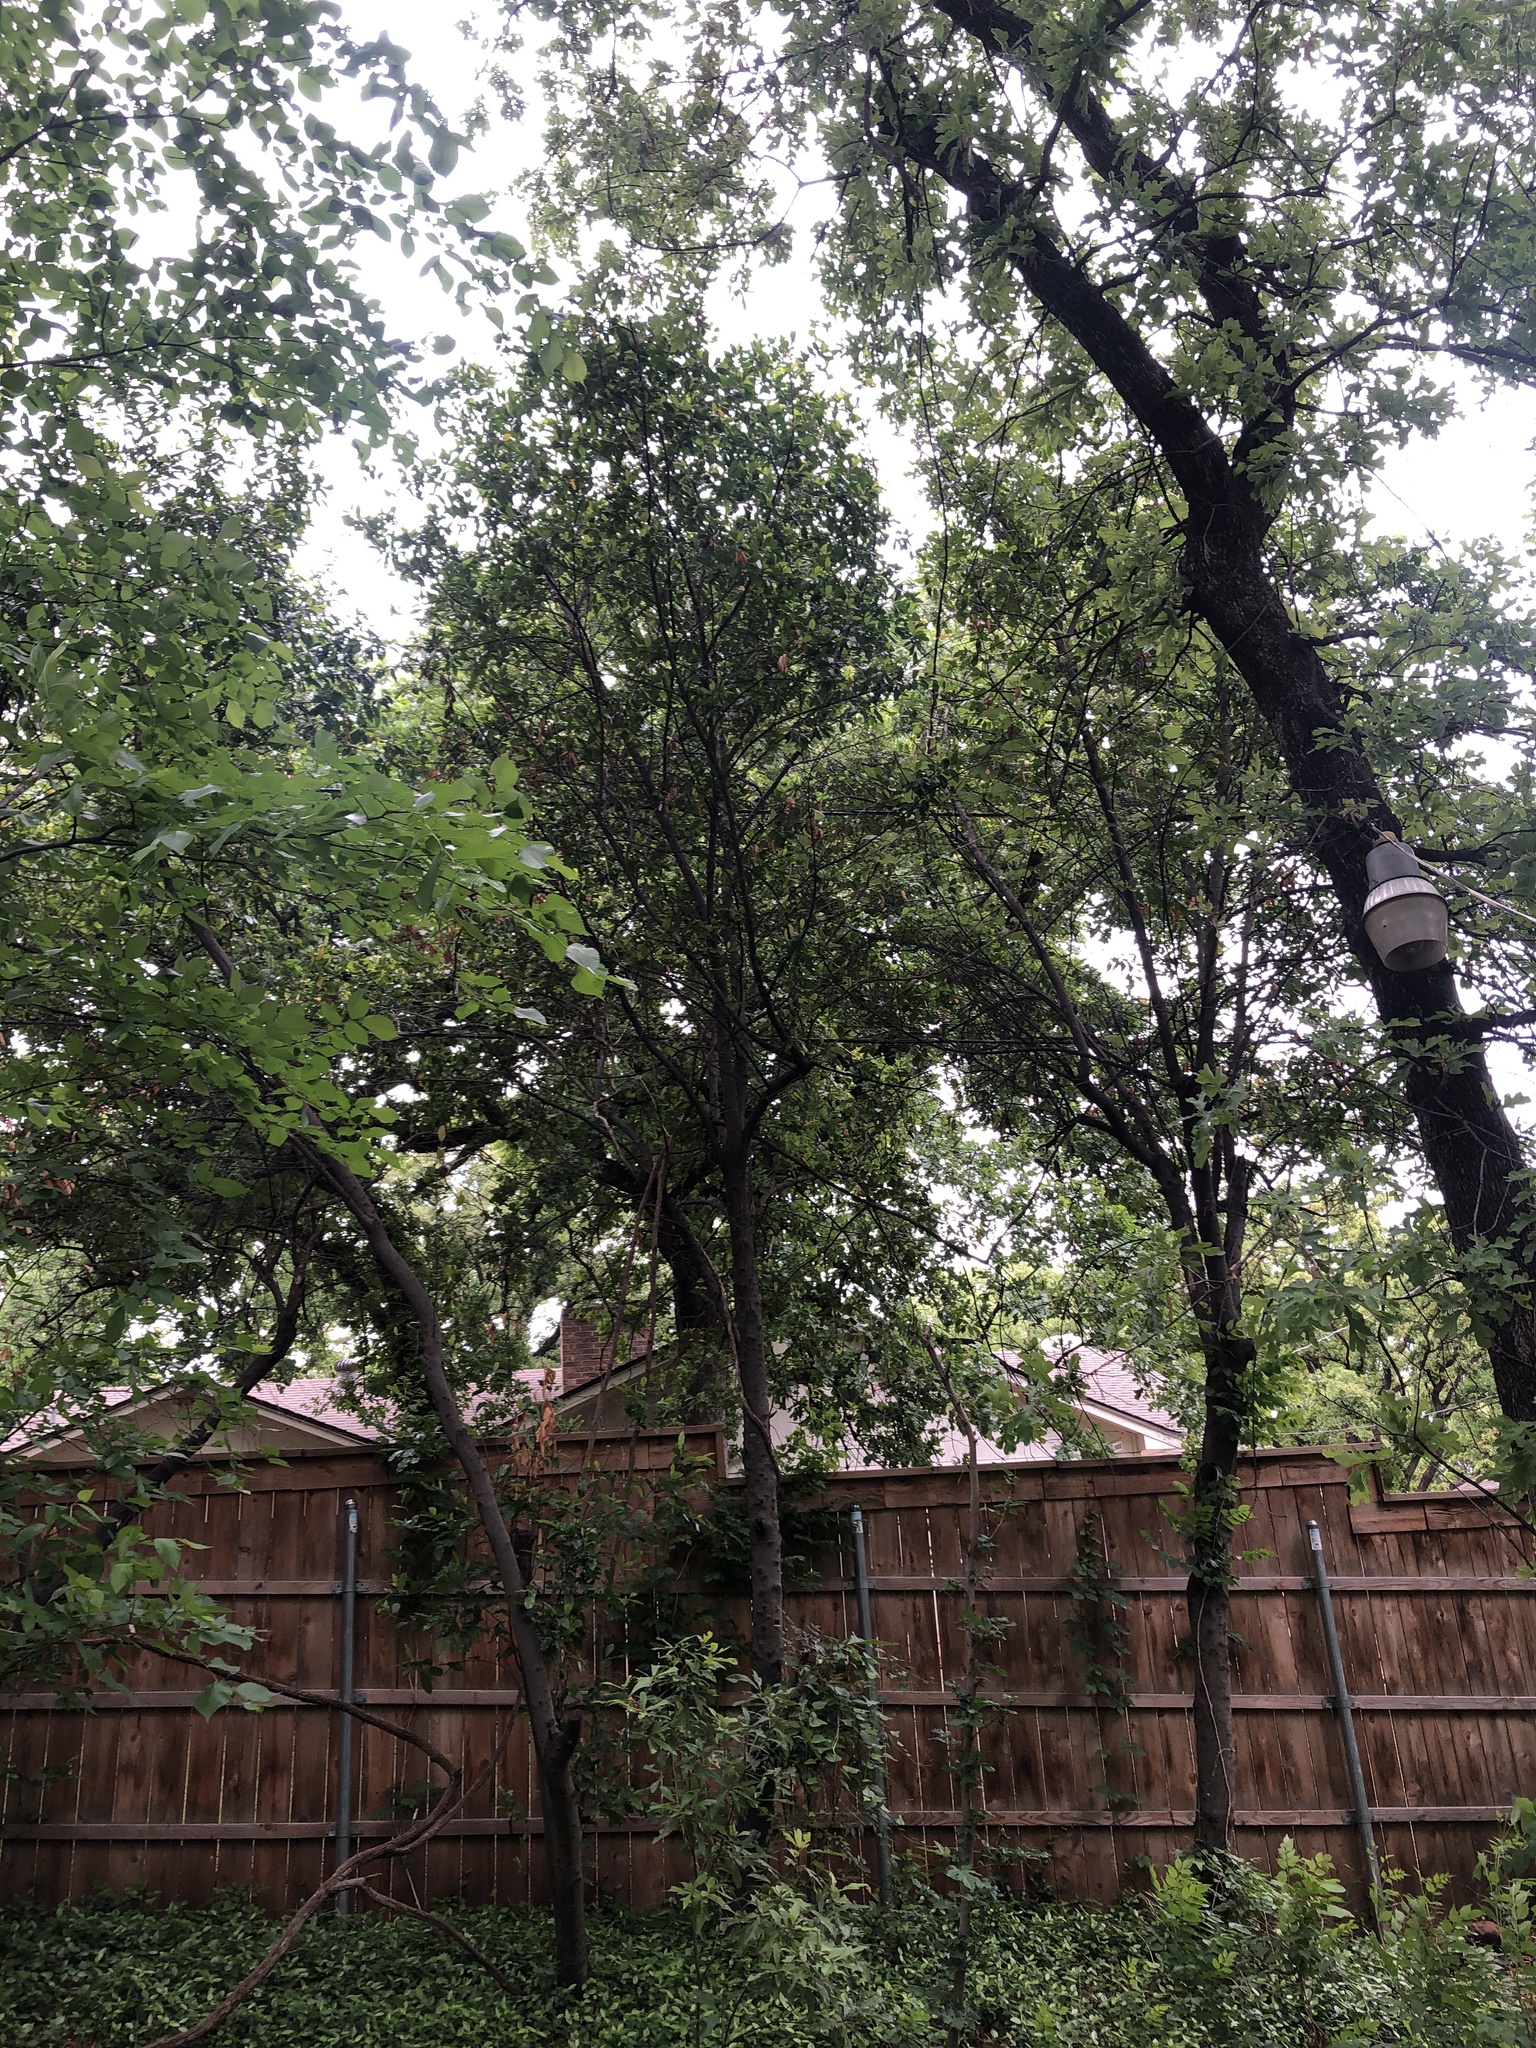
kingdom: Animalia
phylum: Chordata
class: Aves
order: Passeriformes
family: Parulidae
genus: Leiothlypis
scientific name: Leiothlypis ruficapilla
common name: Nashville warbler
